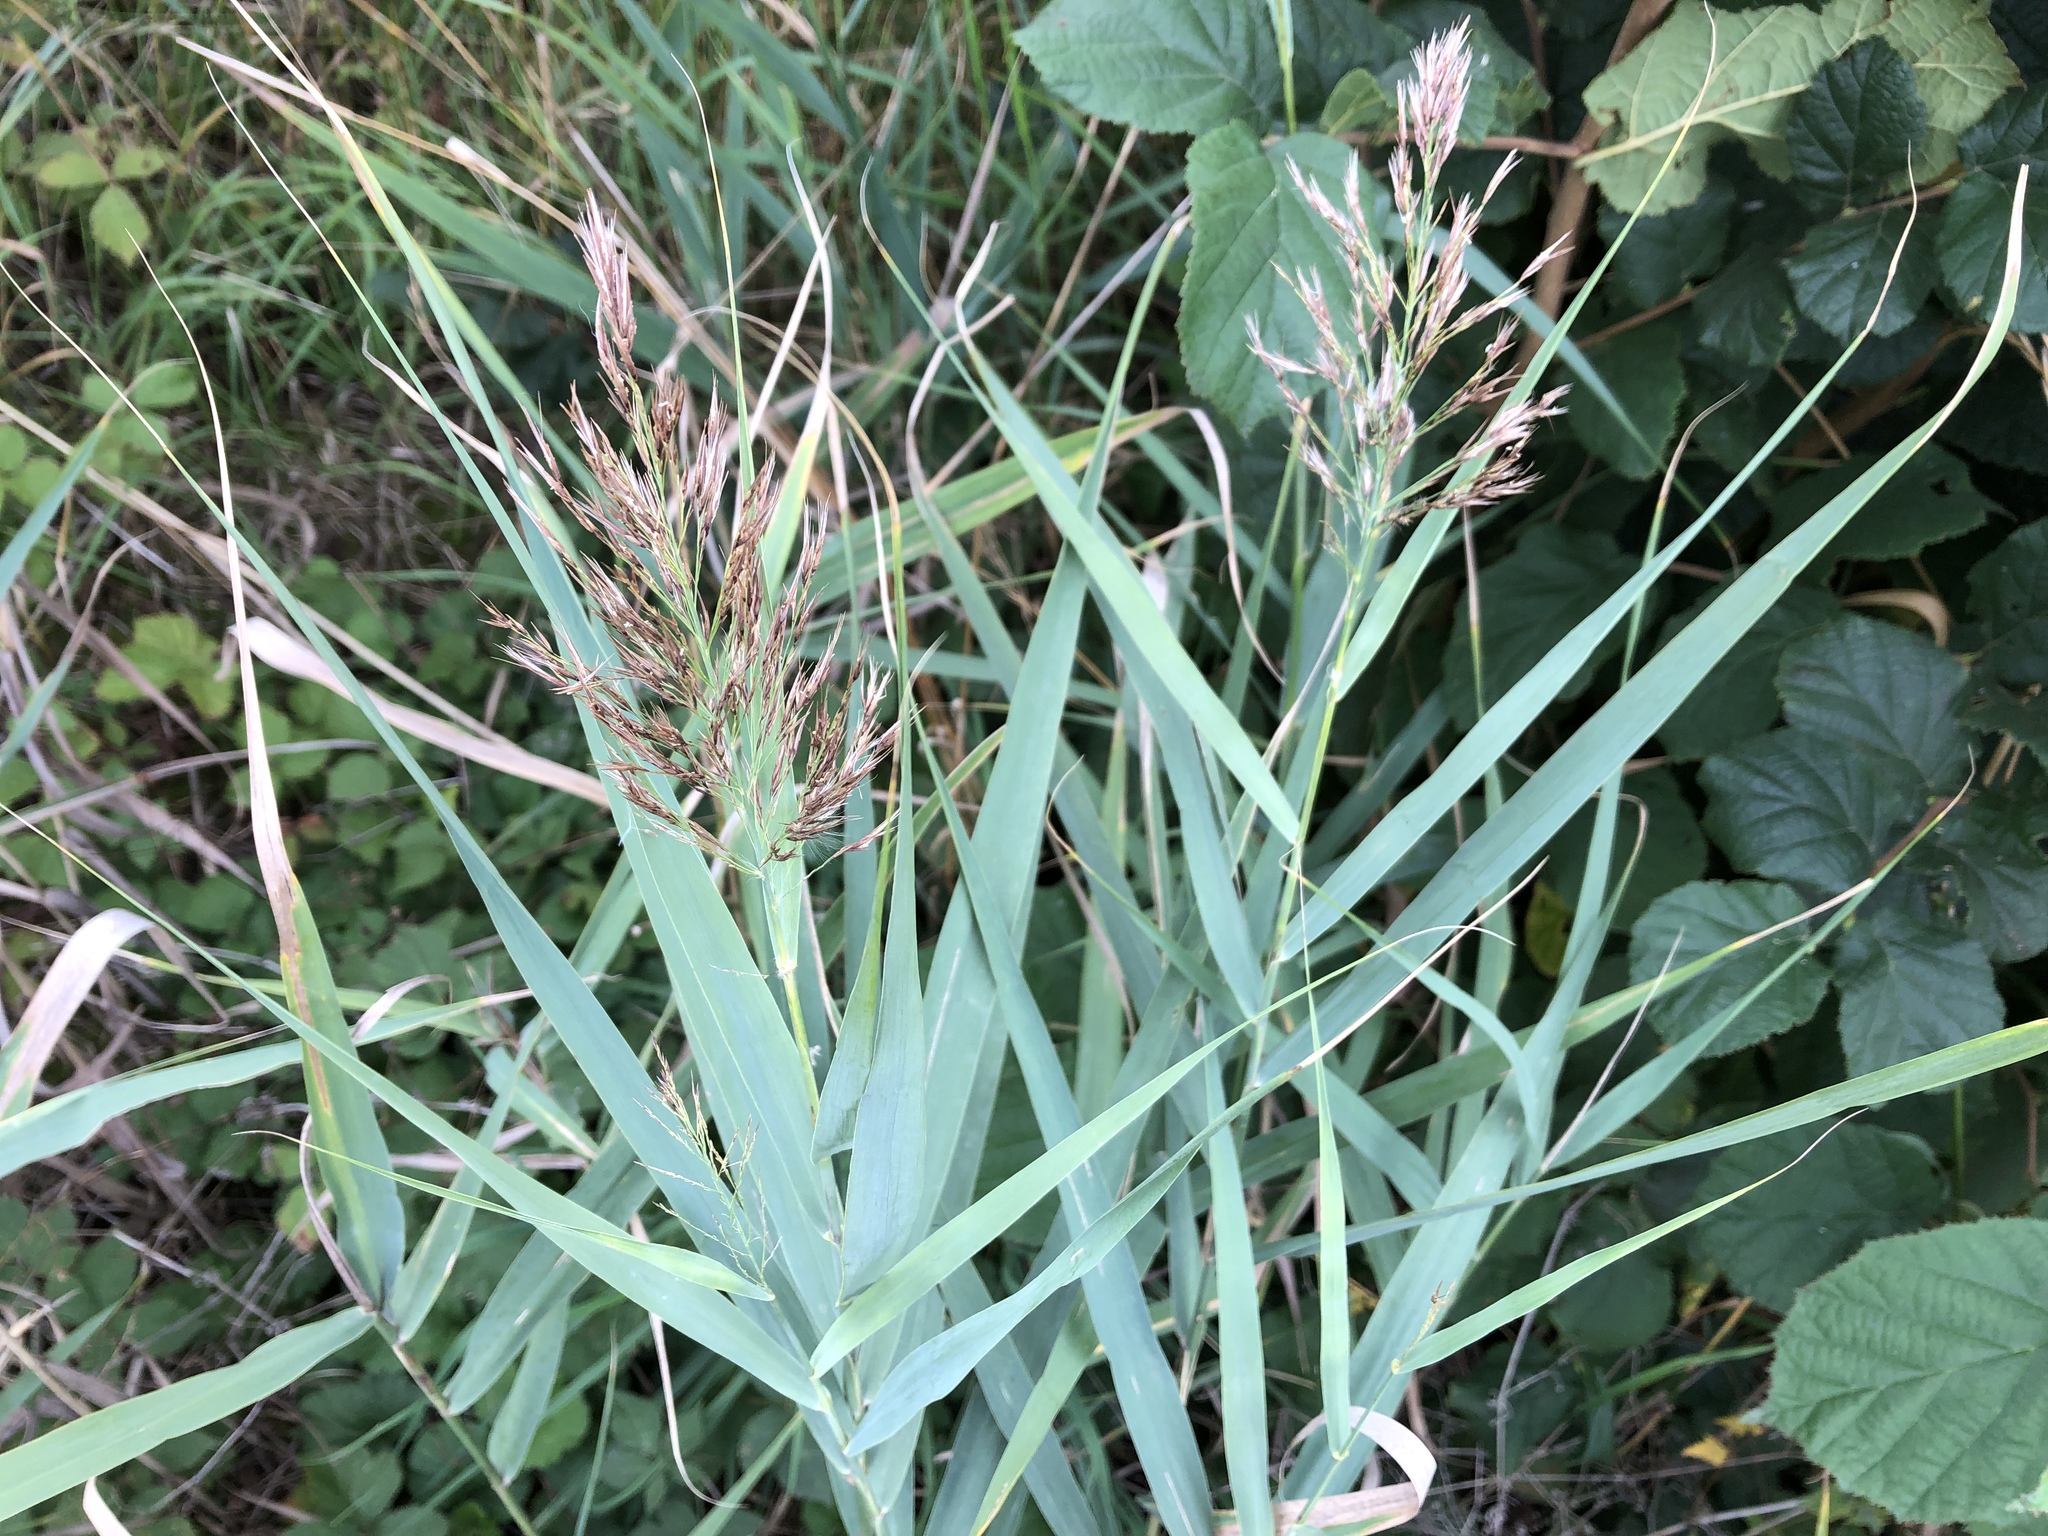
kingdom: Plantae
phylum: Tracheophyta
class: Liliopsida
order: Poales
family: Poaceae
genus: Phragmites
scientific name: Phragmites australis
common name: Common reed
